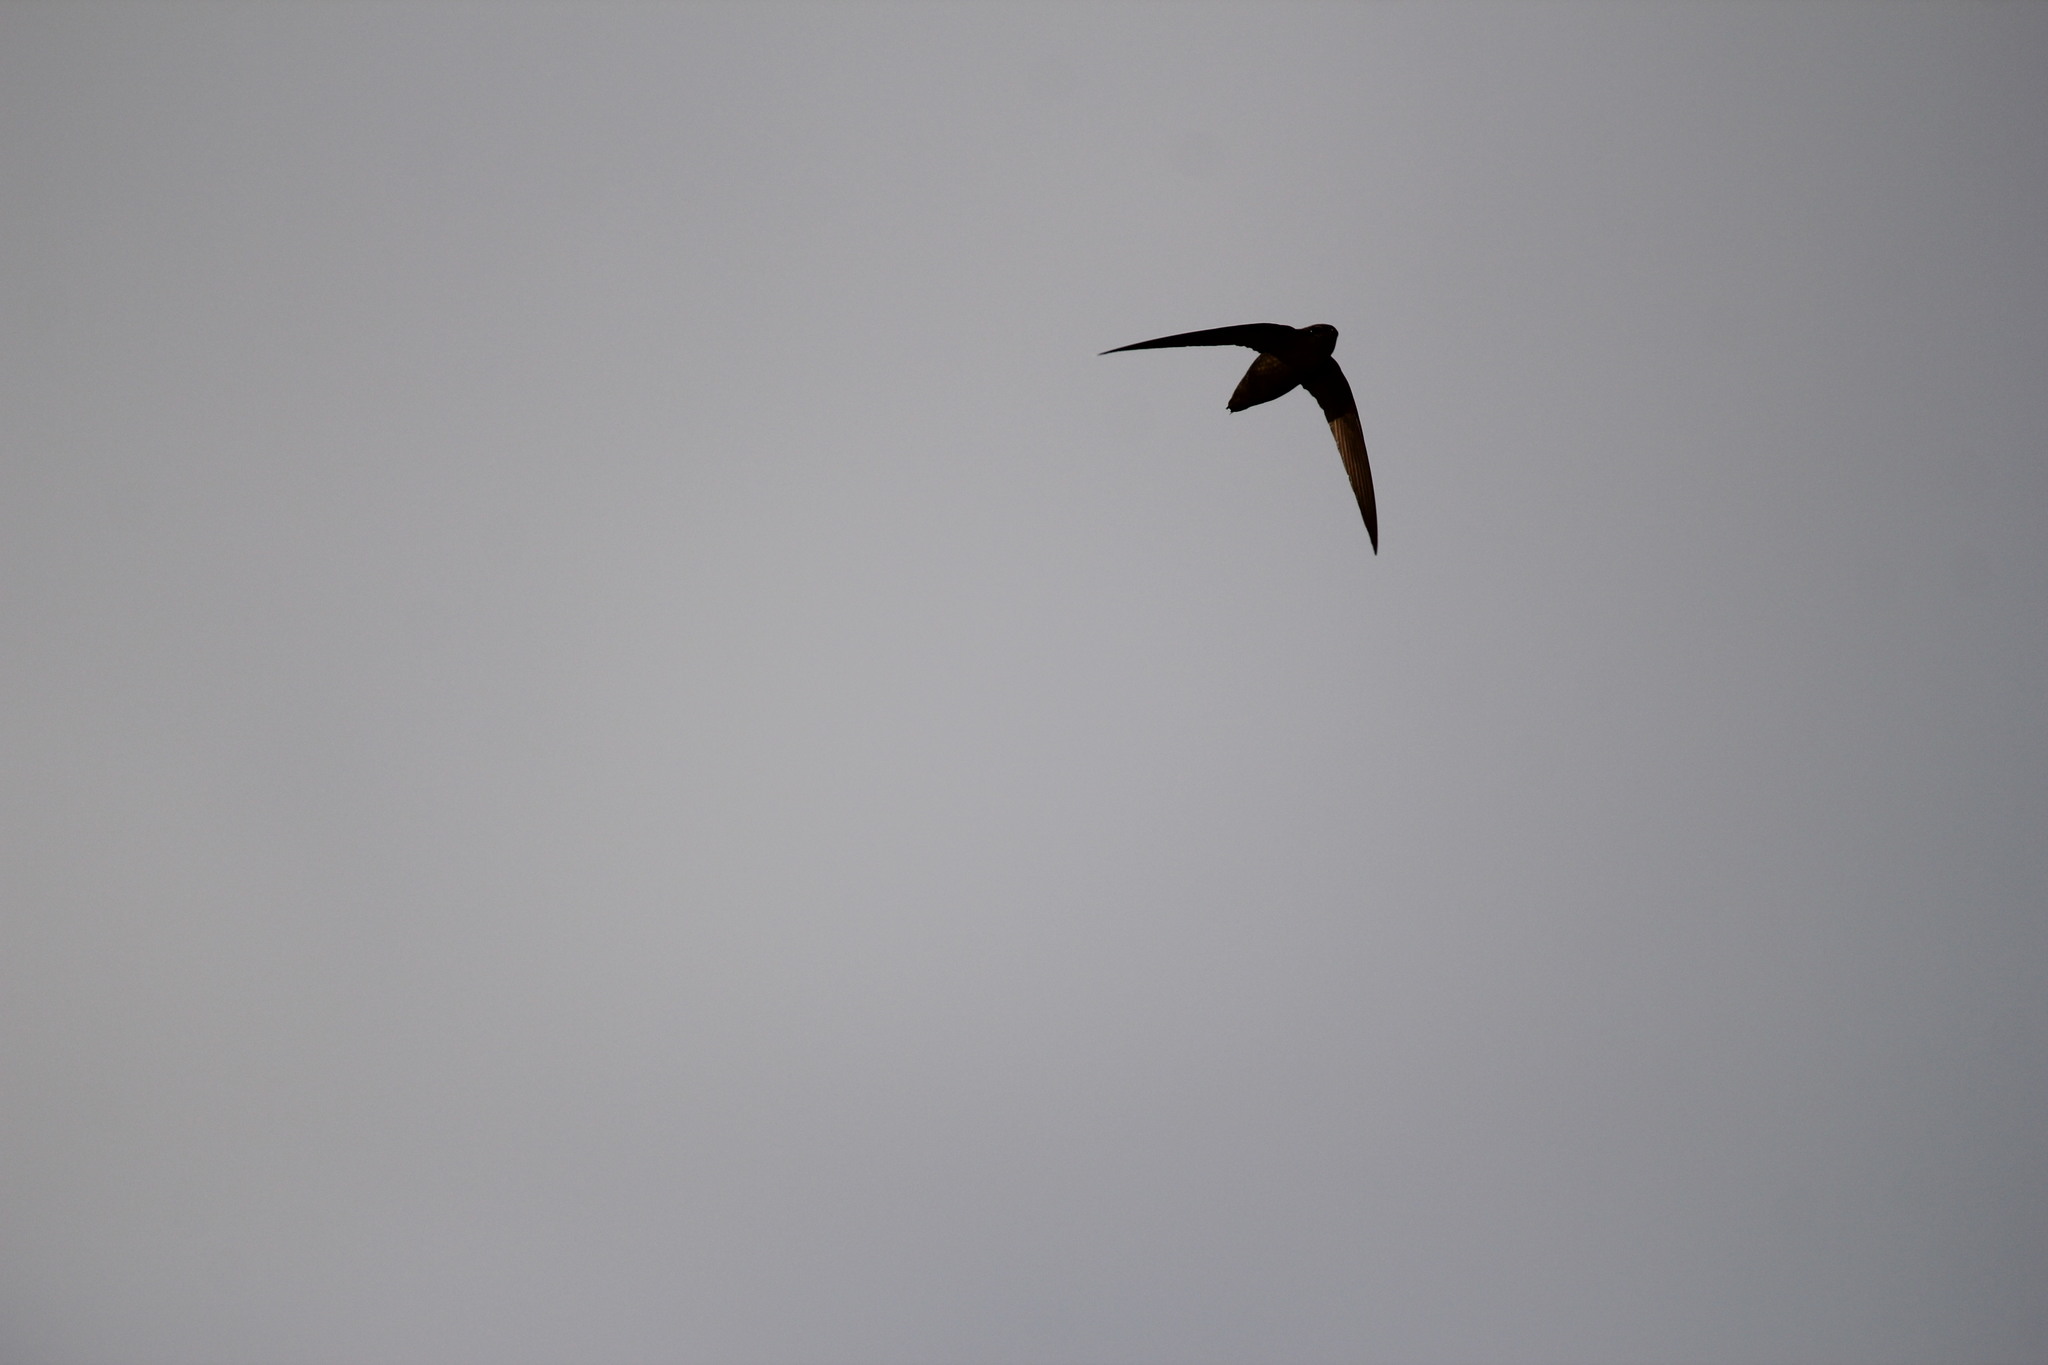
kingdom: Animalia
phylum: Chordata
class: Aves
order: Apodiformes
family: Apodidae
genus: Chaetura
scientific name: Chaetura pelagica
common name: Chimney swift
